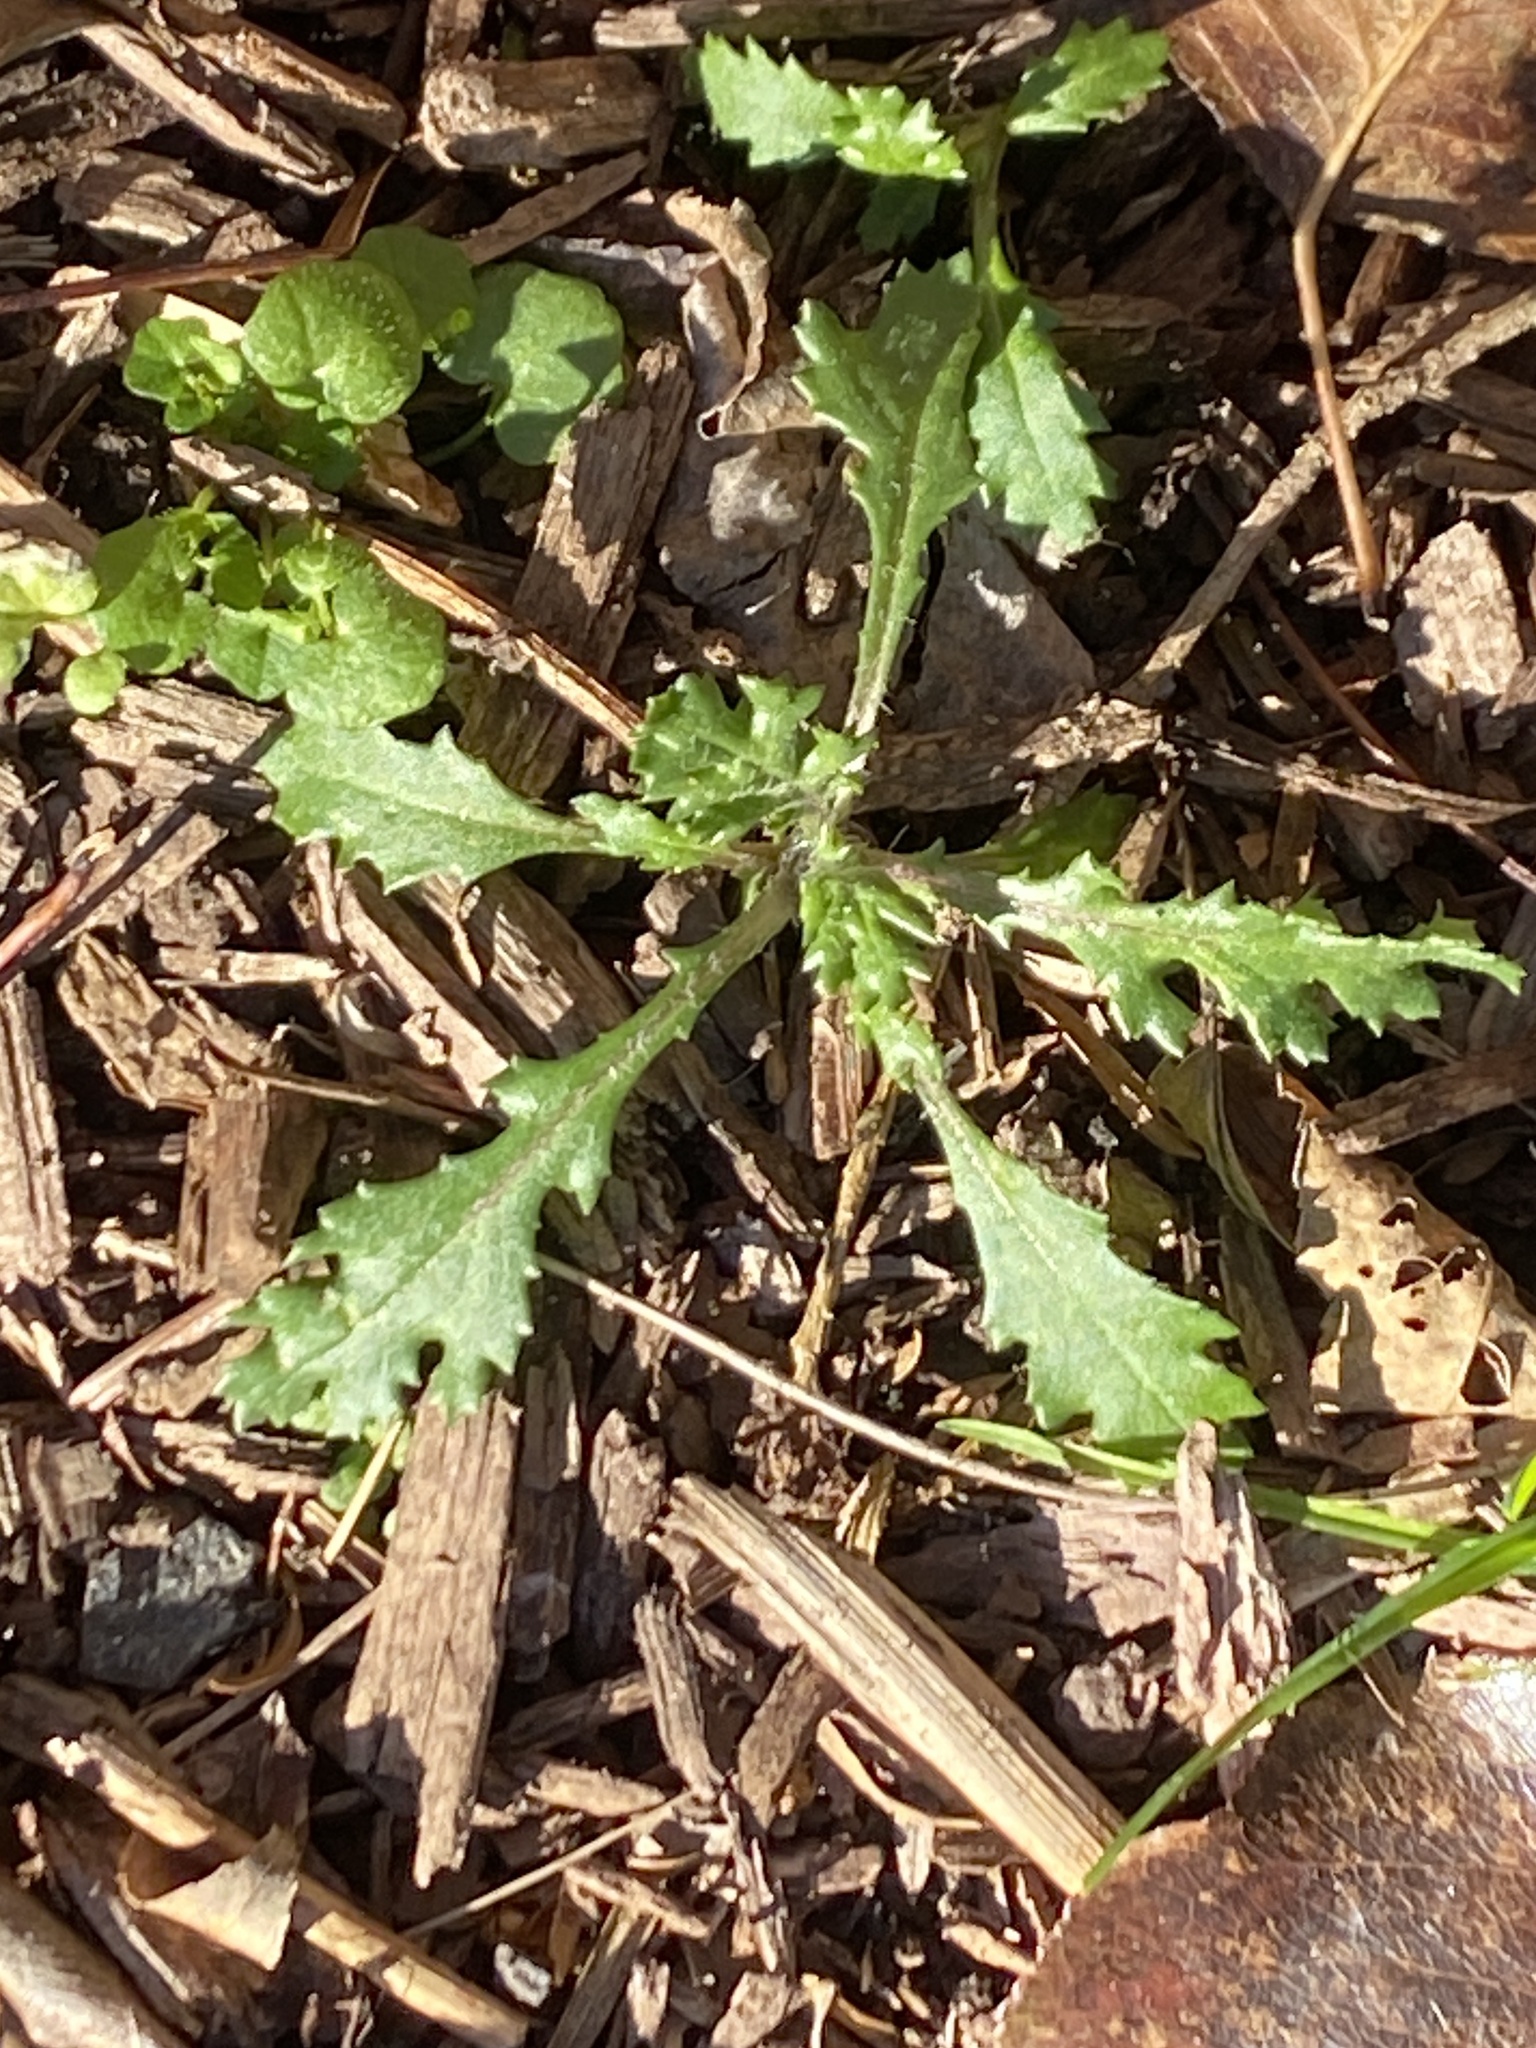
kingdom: Plantae
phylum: Tracheophyta
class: Magnoliopsida
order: Asterales
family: Asteraceae
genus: Senecio
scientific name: Senecio vulgaris
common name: Old-man-in-the-spring
